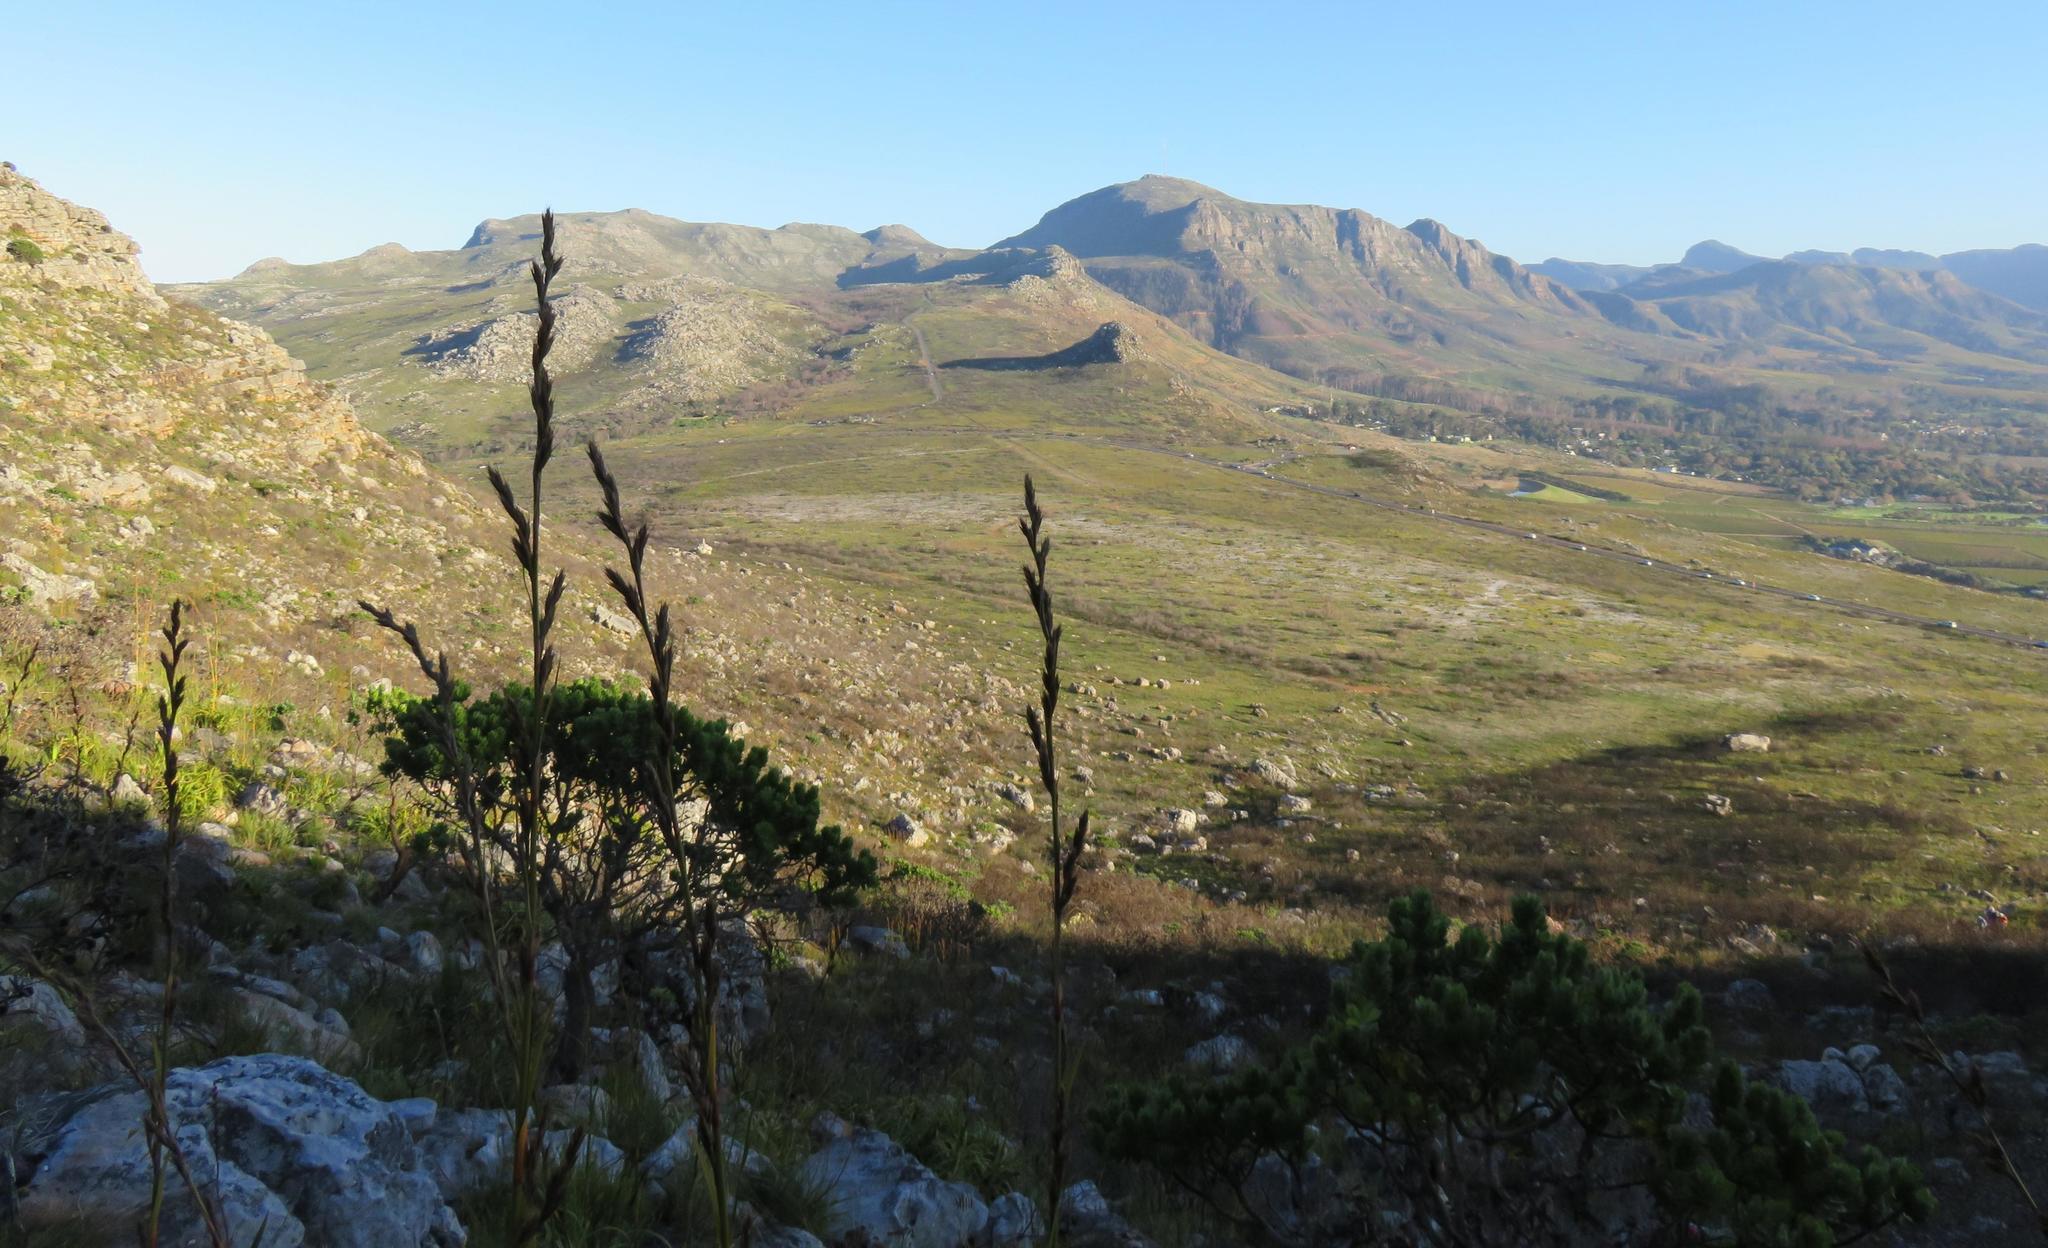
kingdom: Plantae
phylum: Tracheophyta
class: Magnoliopsida
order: Proteales
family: Proteaceae
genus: Leucadendron
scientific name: Leucadendron laureolum
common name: Golden sunshinebush
